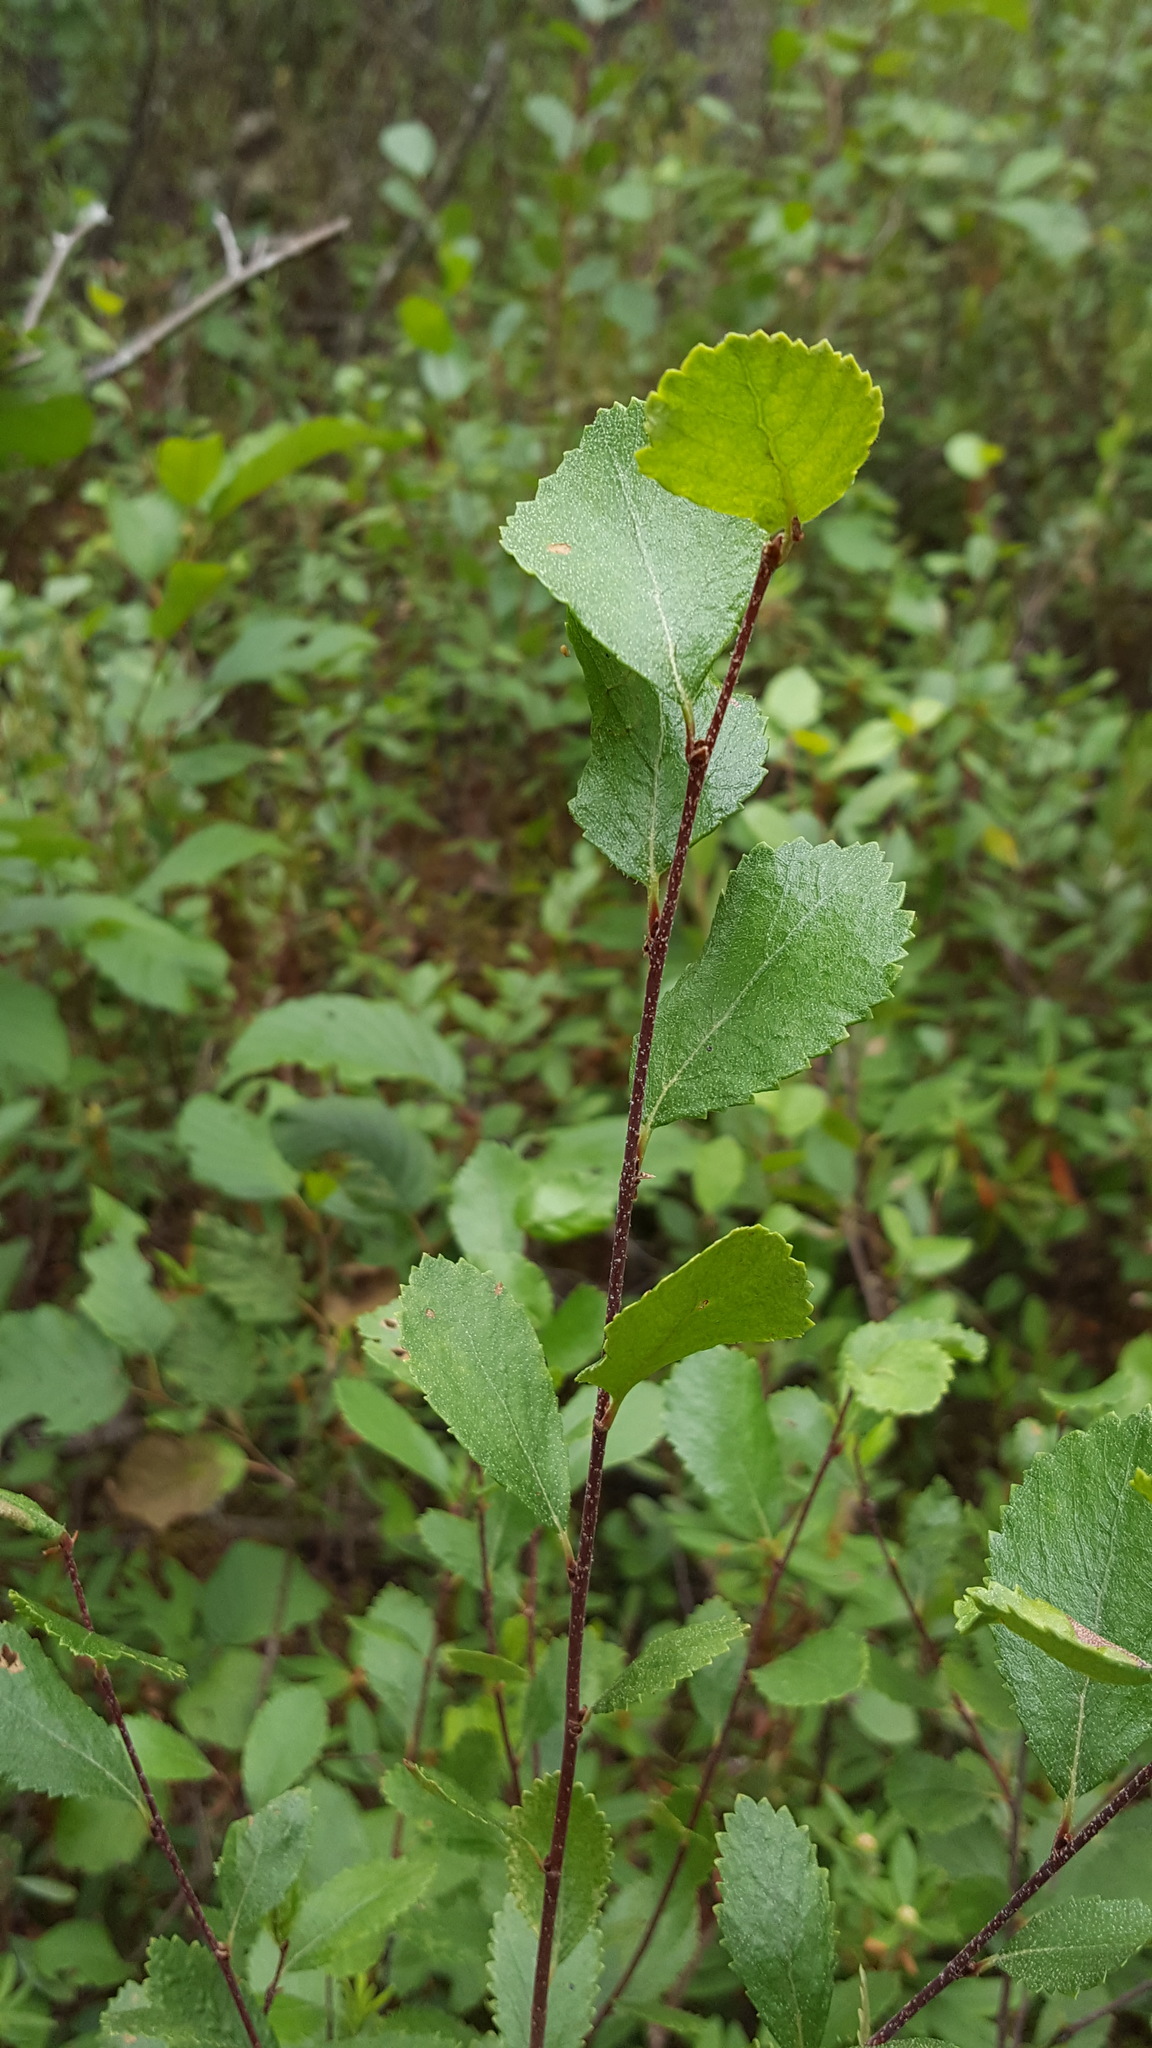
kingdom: Plantae
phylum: Tracheophyta
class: Magnoliopsida
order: Fagales
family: Betulaceae
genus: Betula
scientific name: Betula pumila
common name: Bog birch
